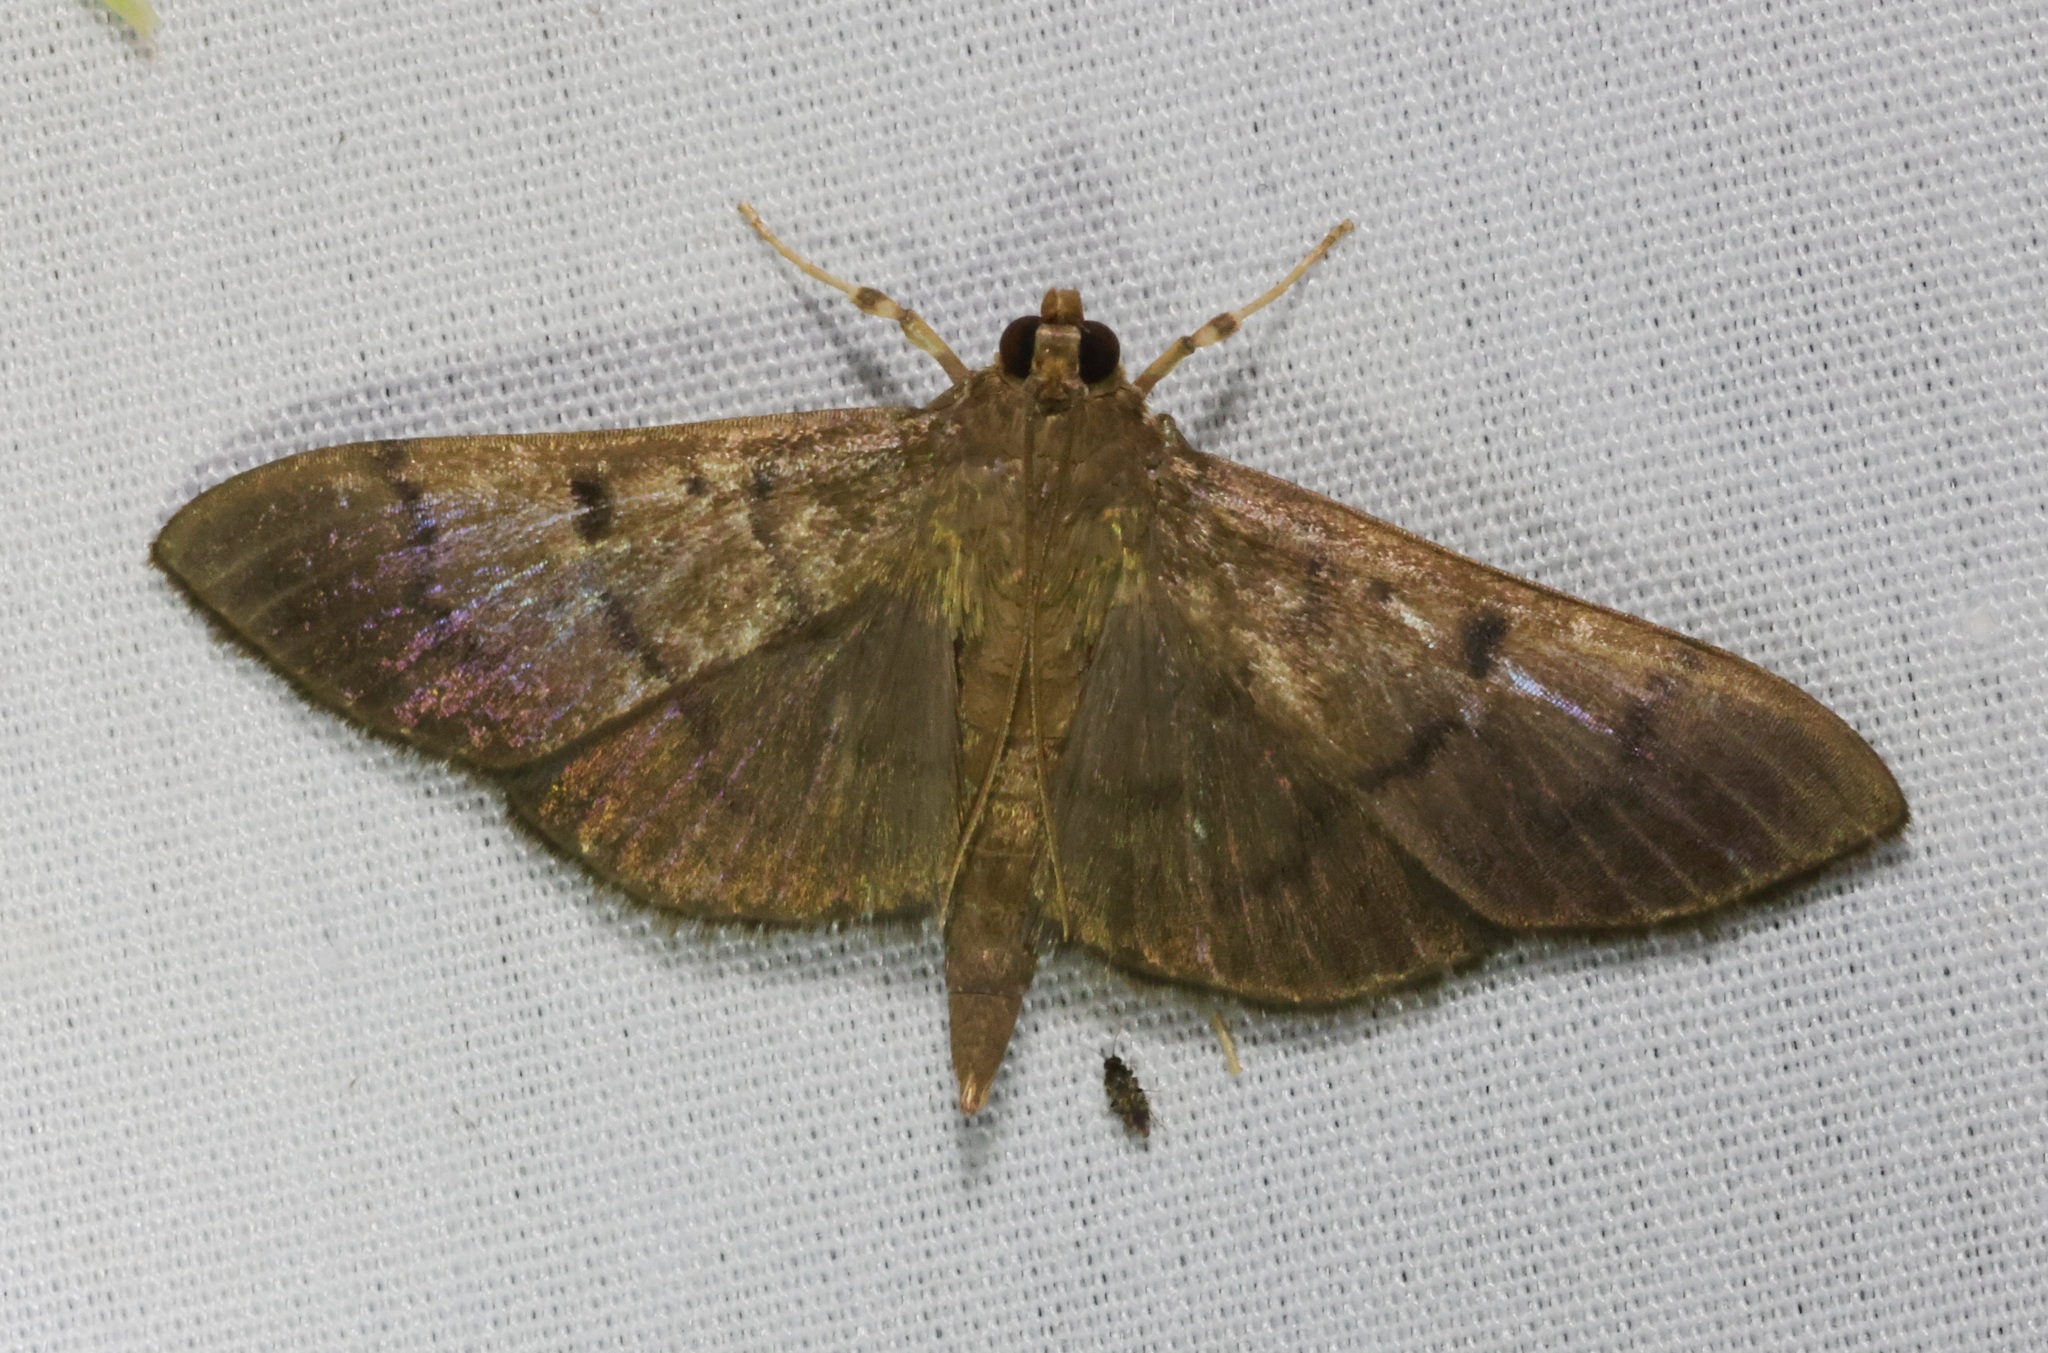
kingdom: Animalia
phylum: Arthropoda
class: Insecta
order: Lepidoptera
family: Crambidae
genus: Syllepte
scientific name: Syllepte pernitescens
